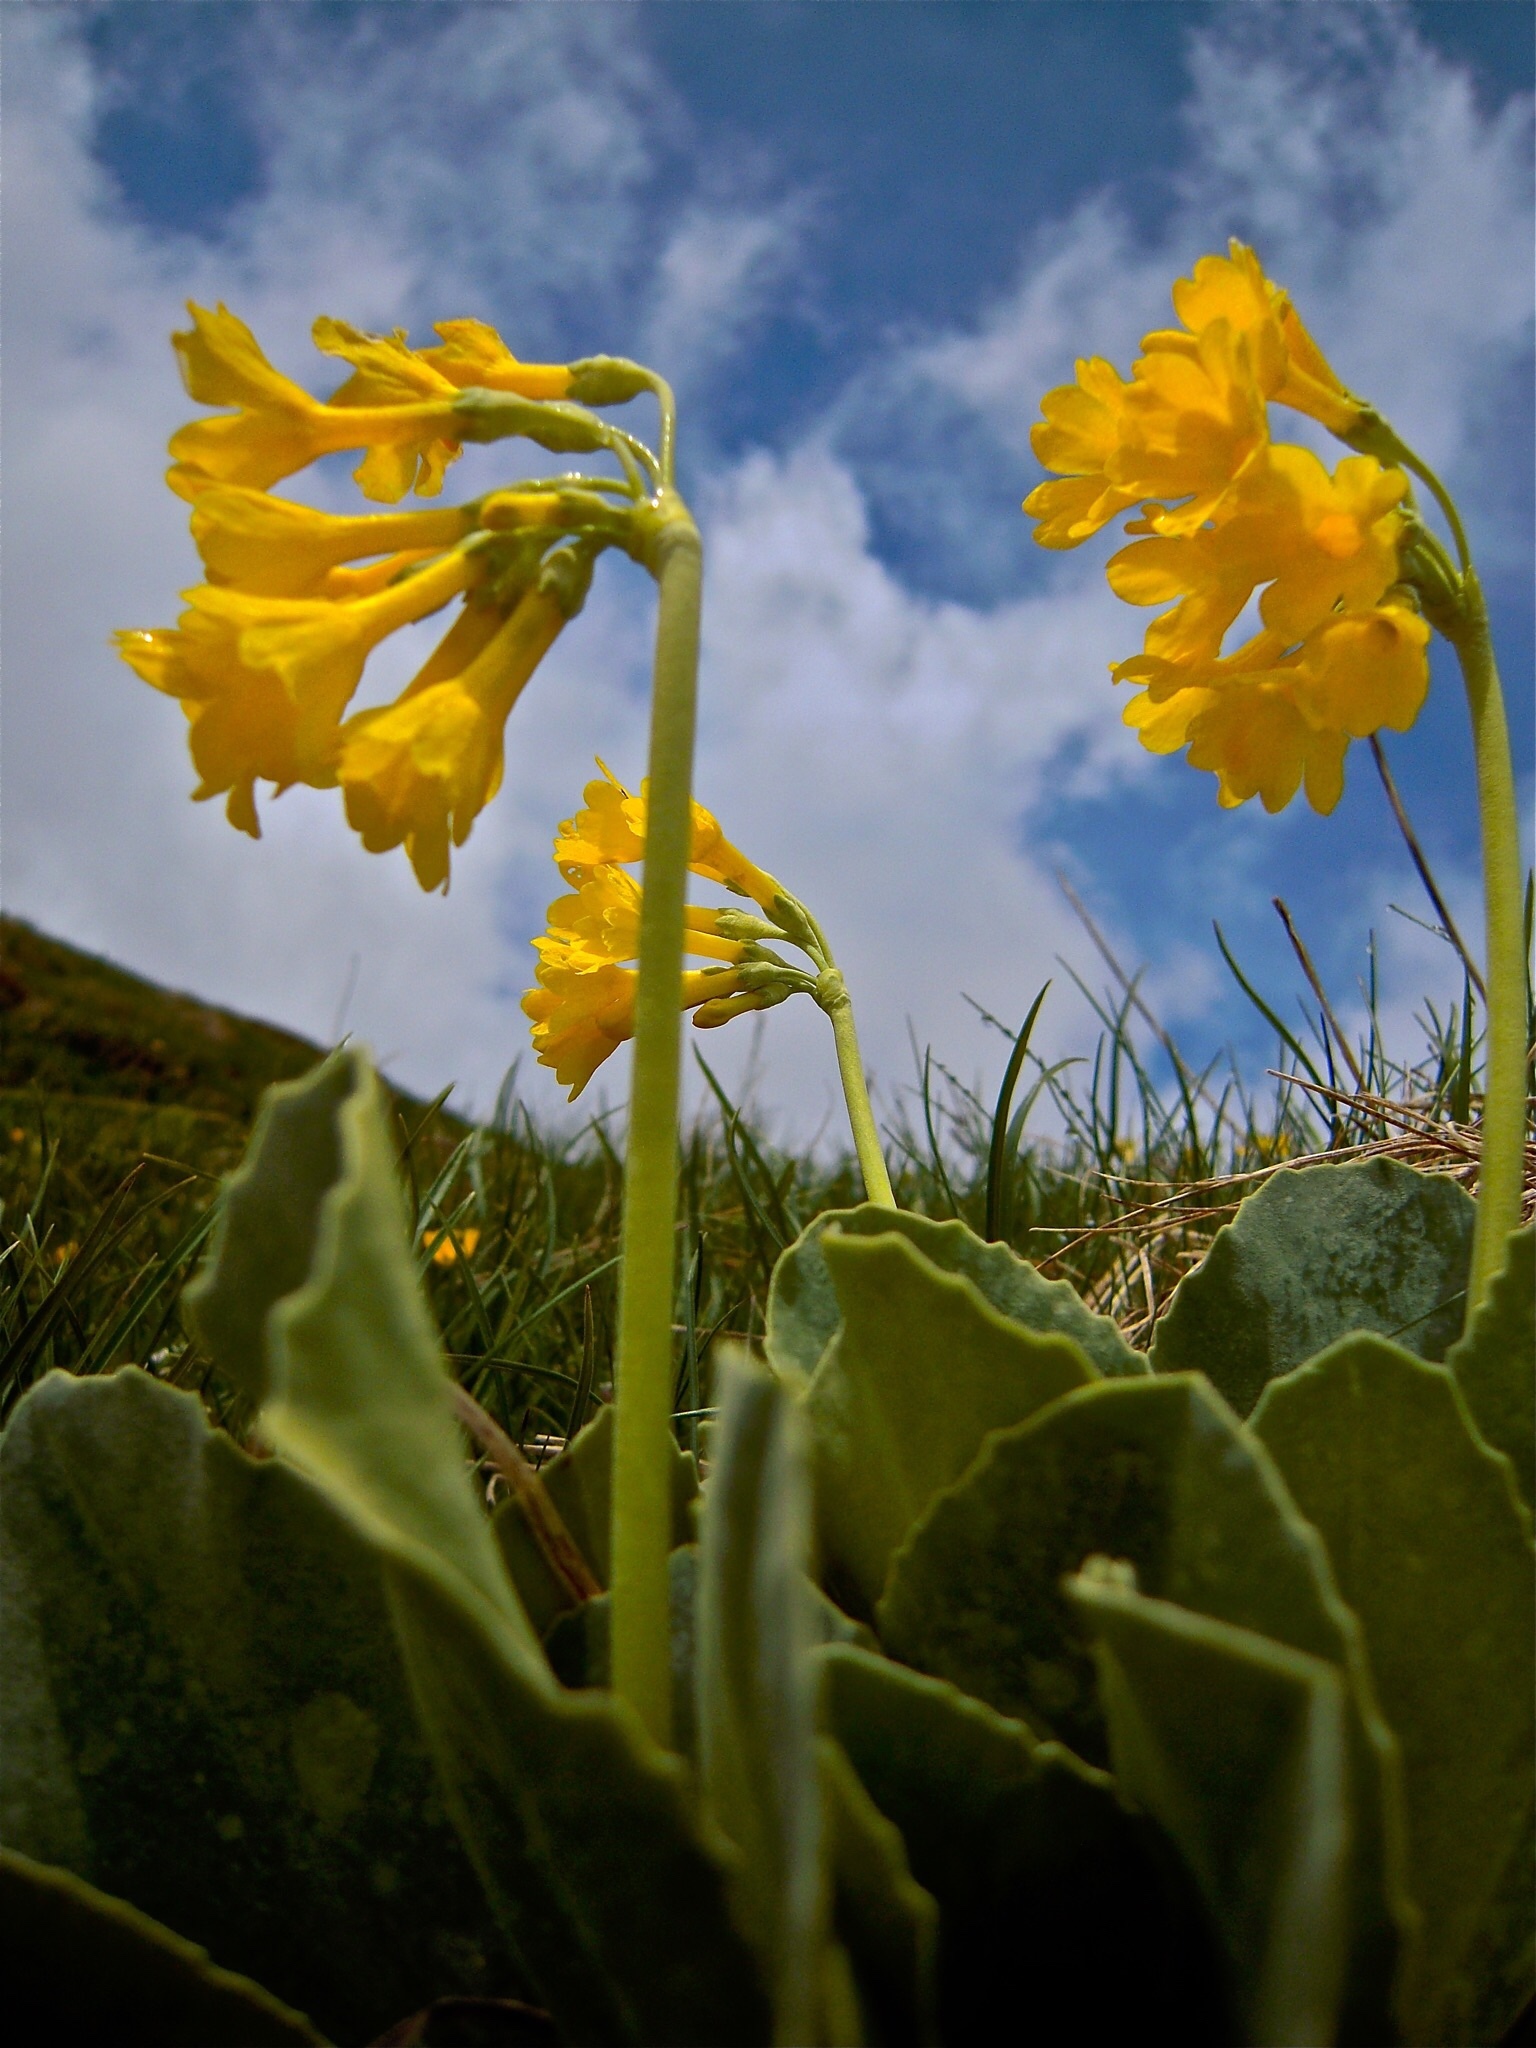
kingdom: Plantae
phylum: Tracheophyta
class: Magnoliopsida
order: Ericales
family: Primulaceae
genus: Primula
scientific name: Primula auricula
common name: Auricula
